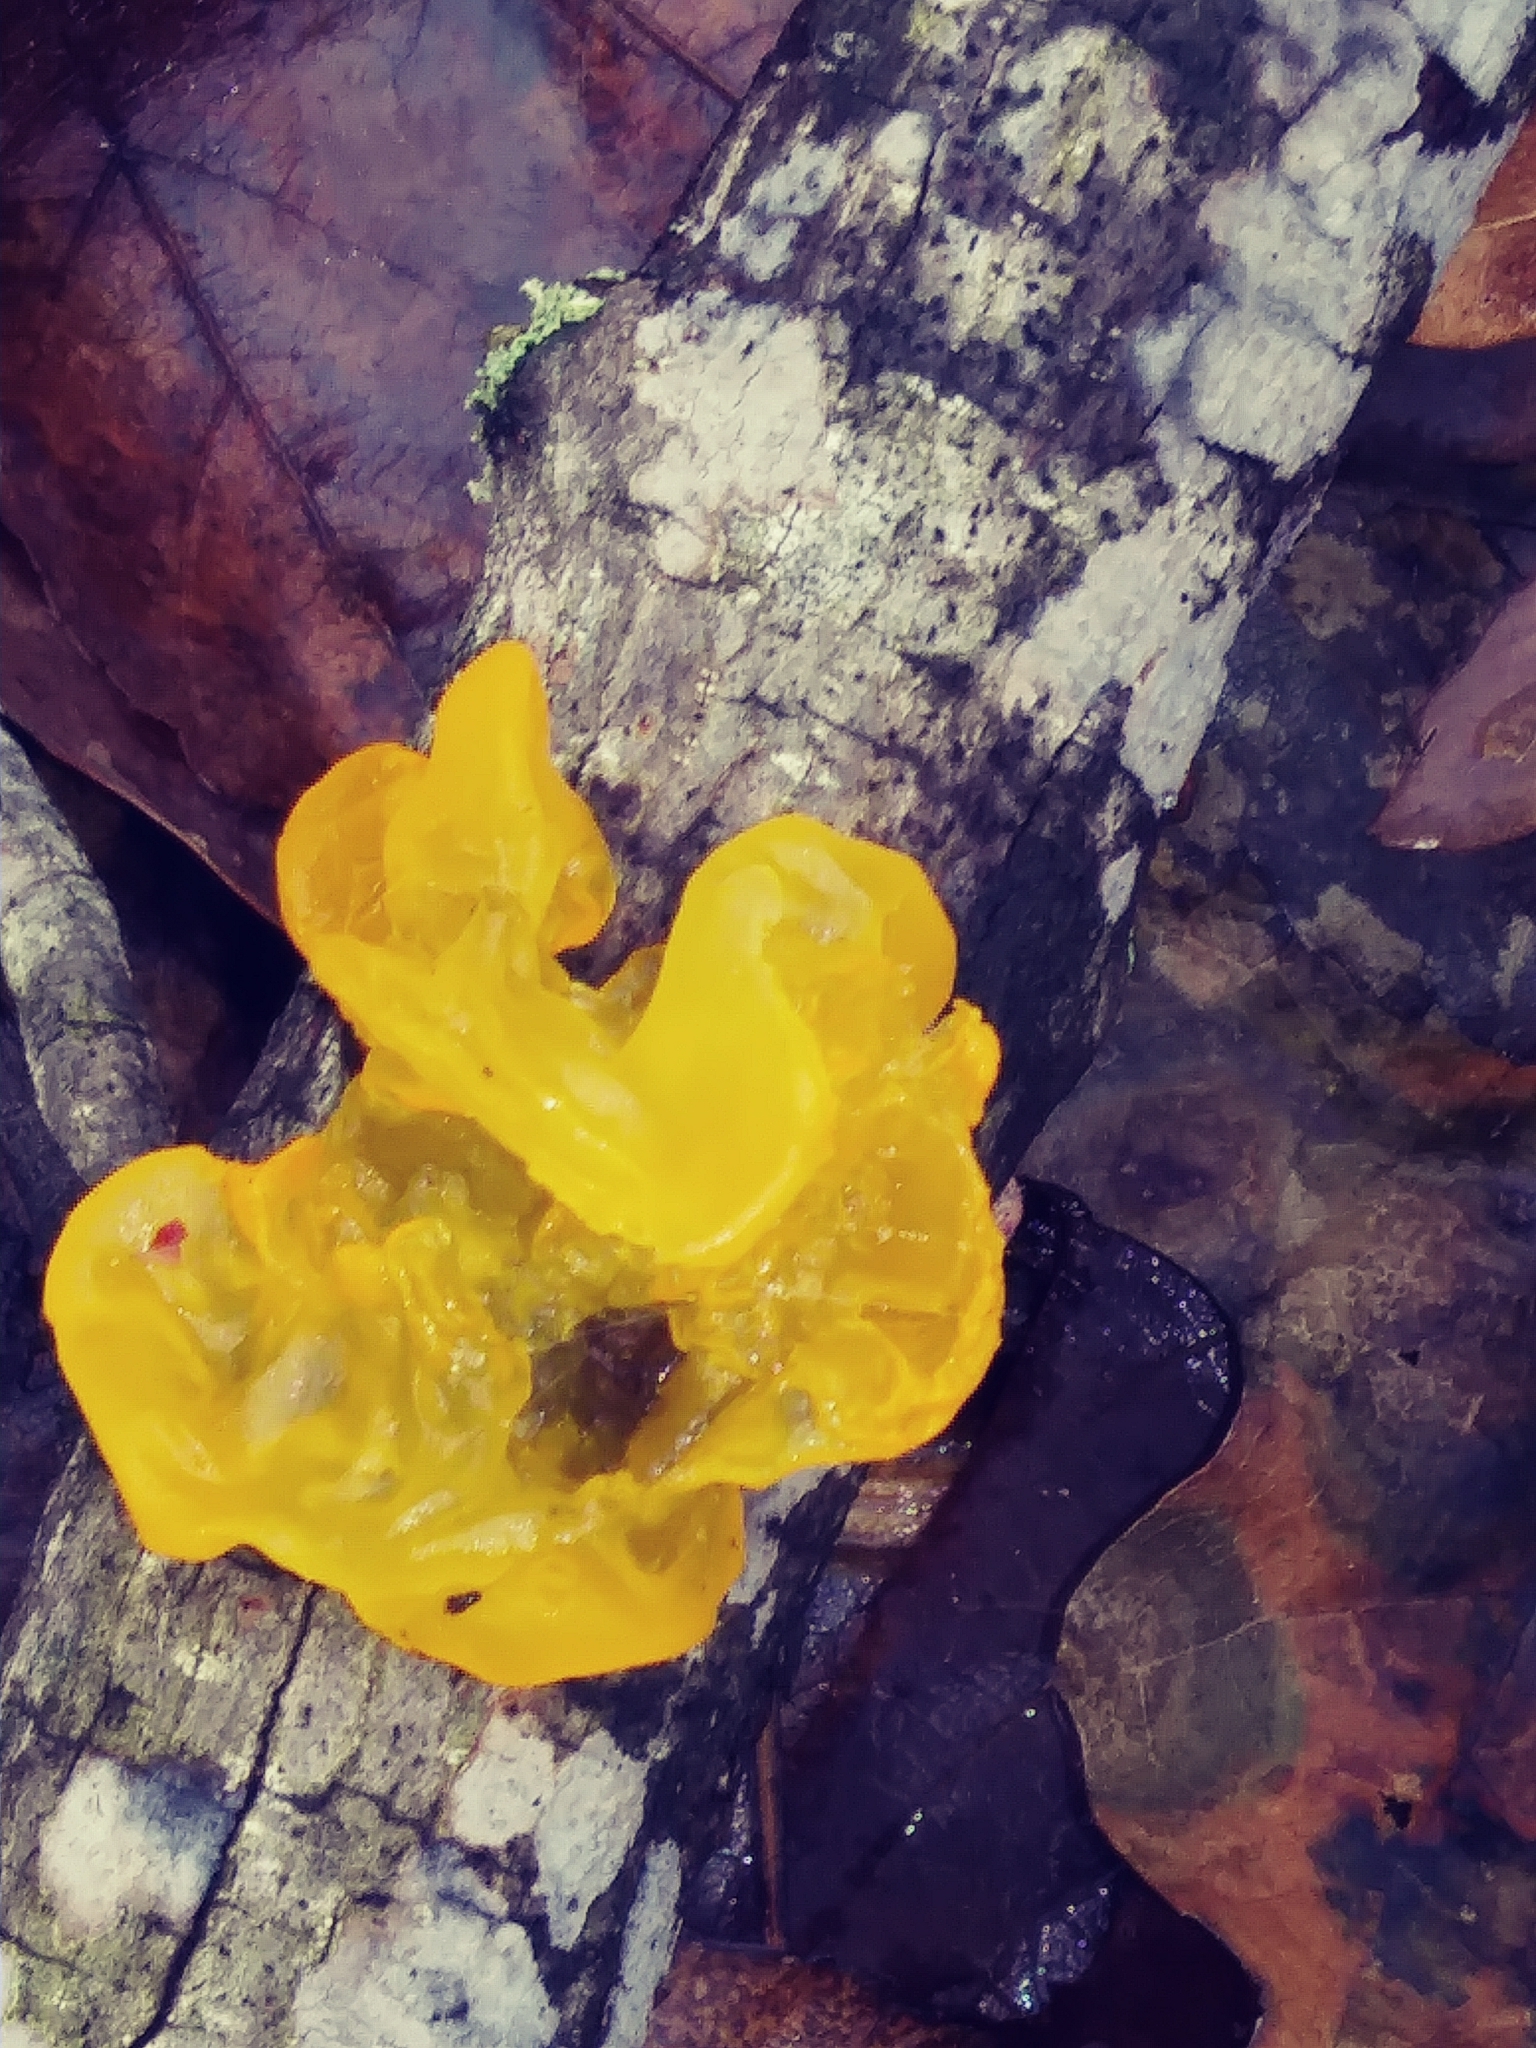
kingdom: Fungi
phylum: Basidiomycota
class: Tremellomycetes
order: Tremellales
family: Tremellaceae
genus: Tremella
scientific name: Tremella mesenterica
